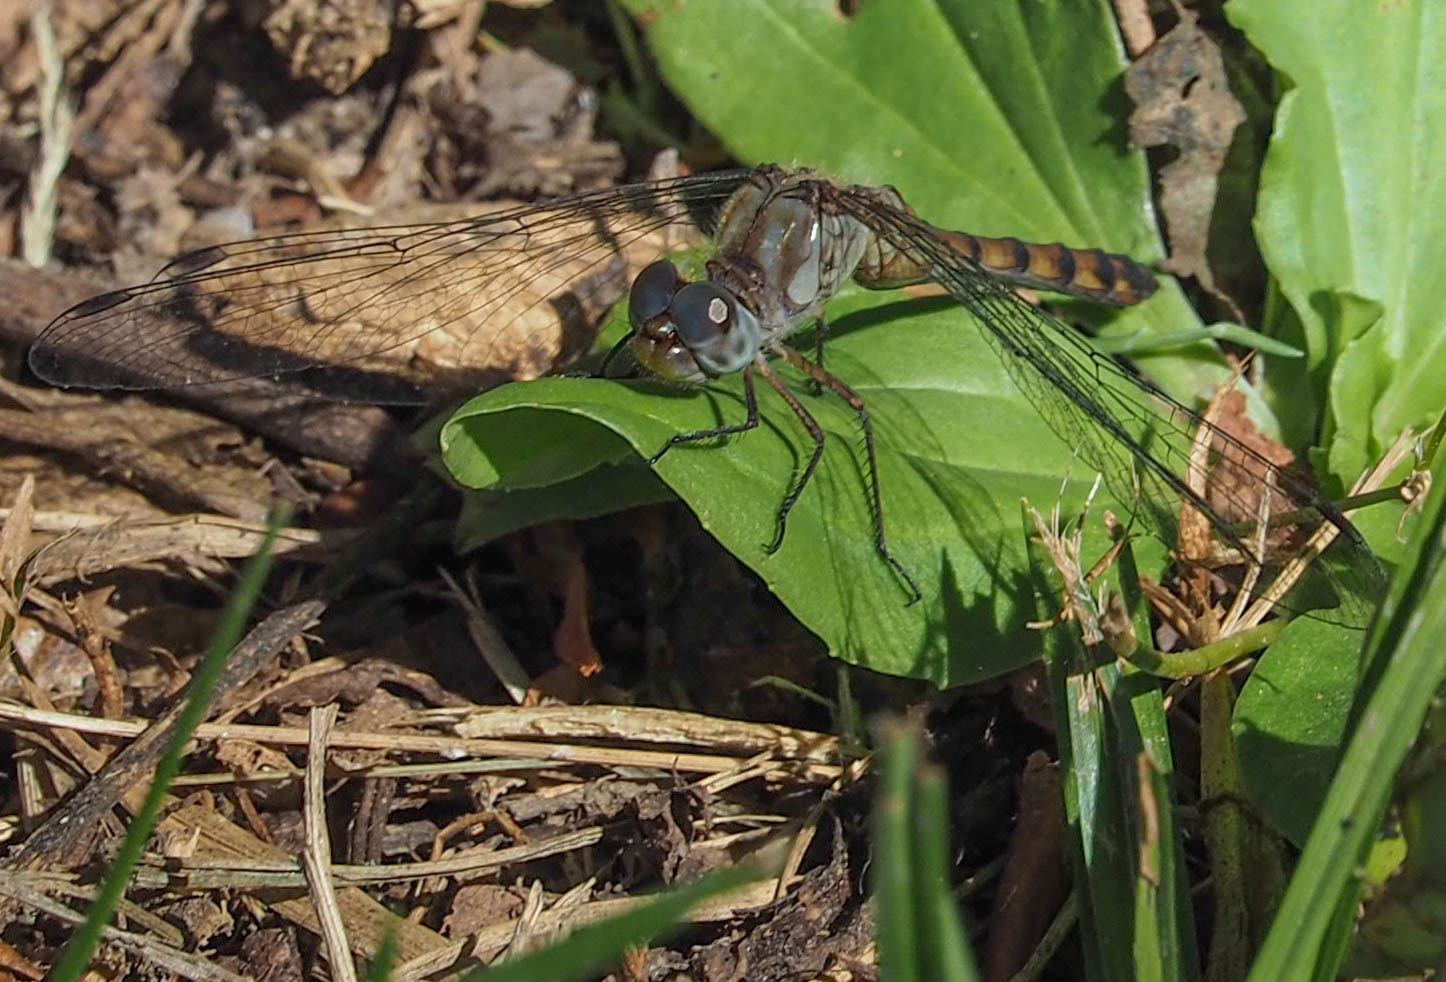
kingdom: Animalia
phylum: Arthropoda
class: Insecta
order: Odonata
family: Libellulidae
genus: Sympetrum
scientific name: Sympetrum ambiguum
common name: Blue-faced meadowhawk
